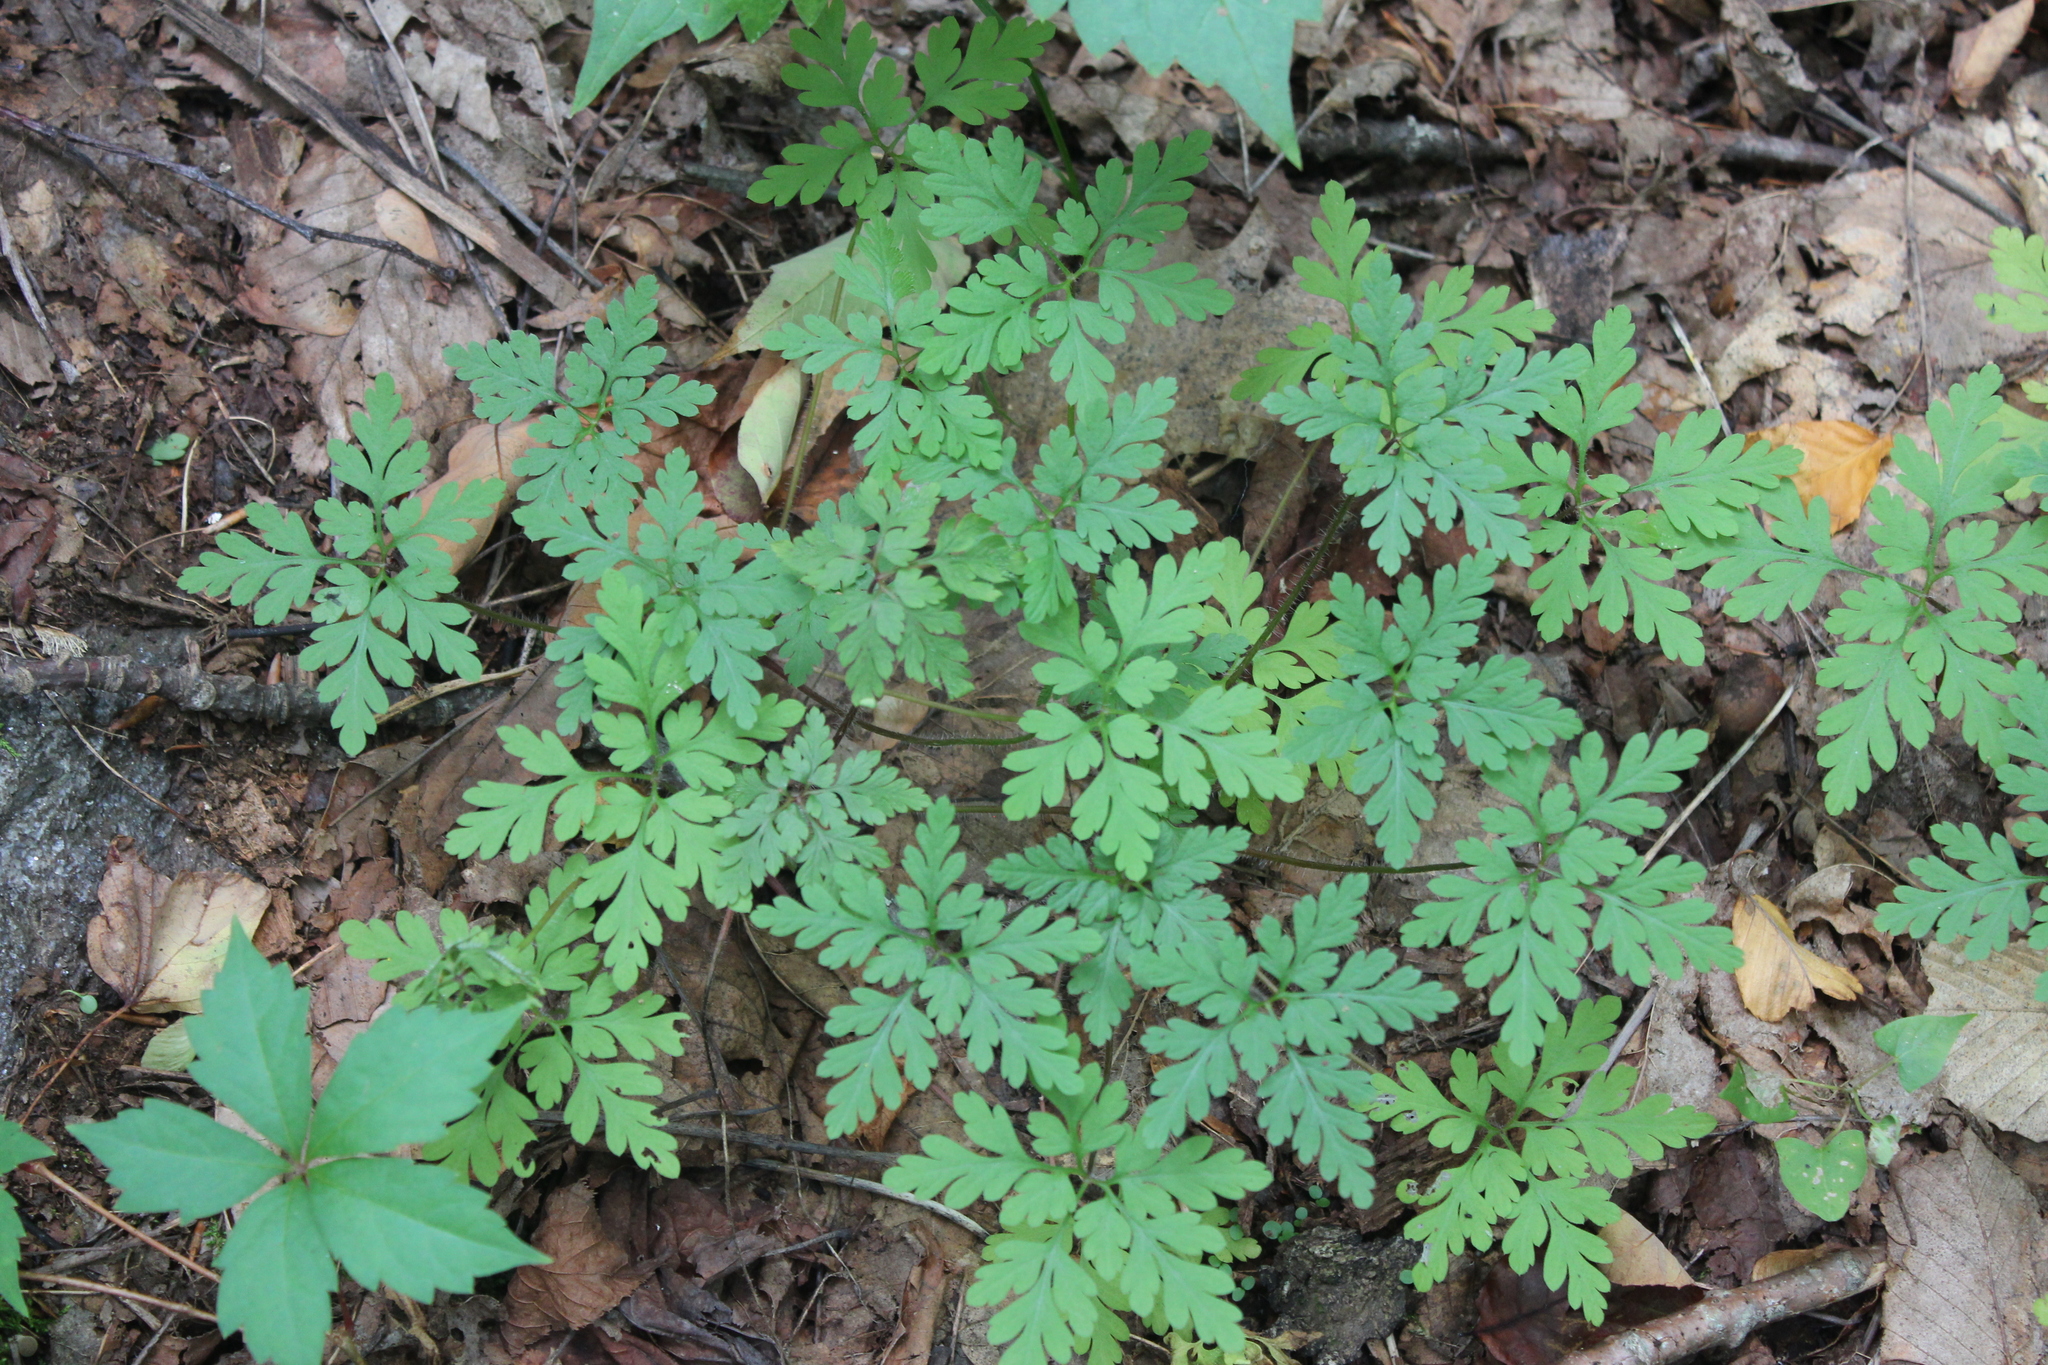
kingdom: Plantae
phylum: Tracheophyta
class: Magnoliopsida
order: Geraniales
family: Geraniaceae
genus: Geranium
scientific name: Geranium robertianum
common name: Herb-robert
